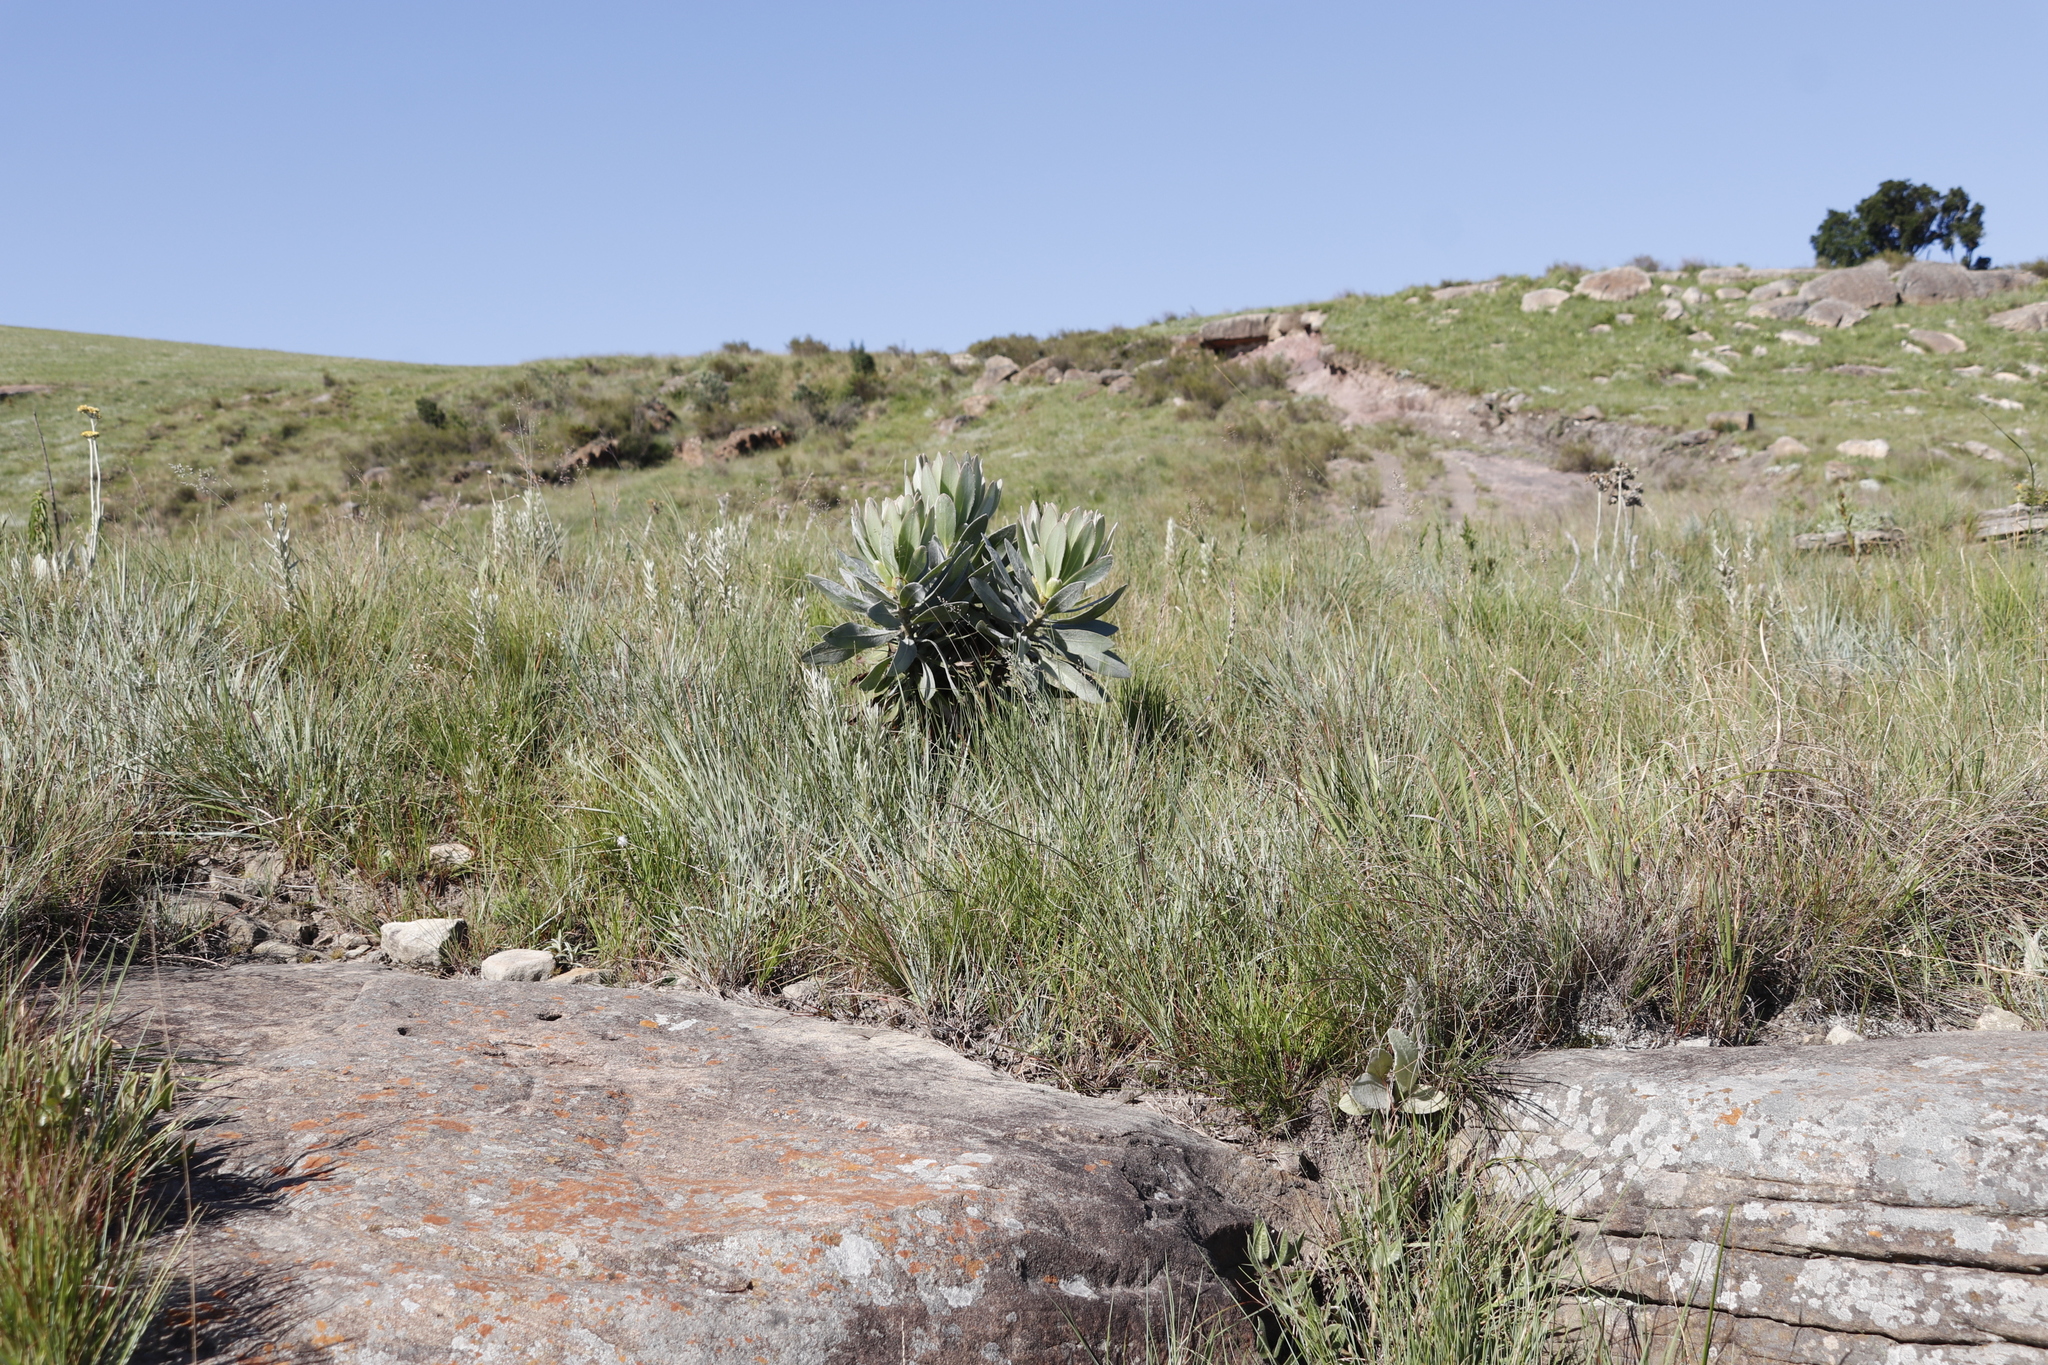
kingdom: Plantae
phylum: Tracheophyta
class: Magnoliopsida
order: Proteales
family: Proteaceae
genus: Protea
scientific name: Protea roupelliae
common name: Silver sugarbush
